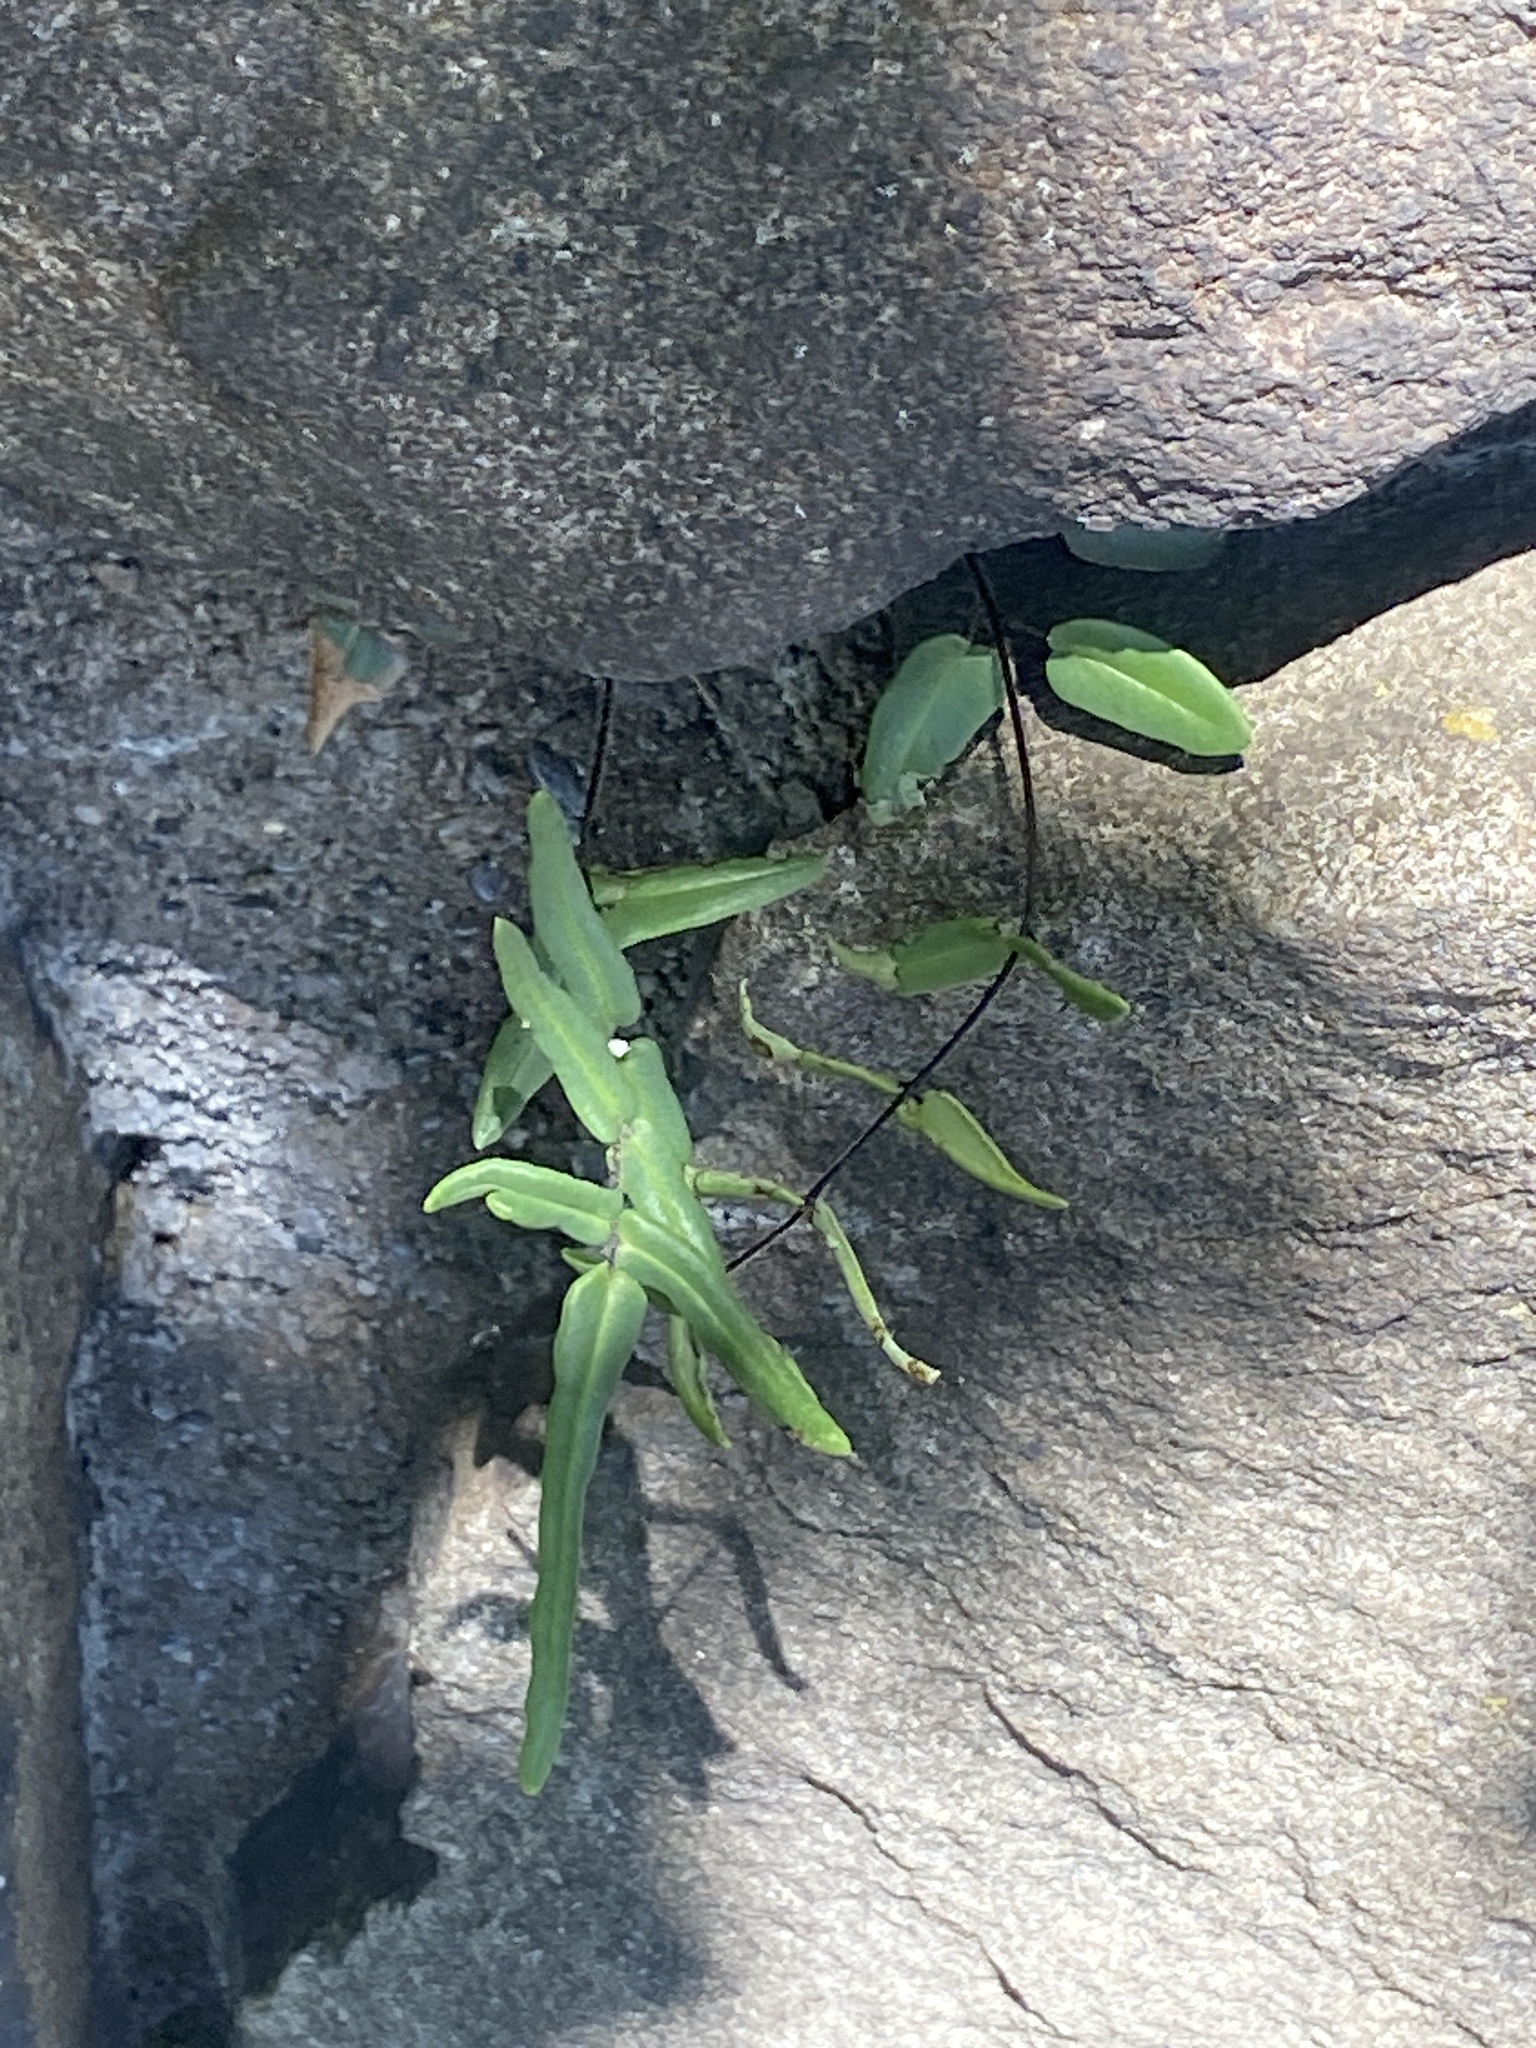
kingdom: Plantae
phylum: Tracheophyta
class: Polypodiopsida
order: Polypodiales
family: Pteridaceae
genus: Pellaea
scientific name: Pellaea atropurpurea
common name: Hairy cliffbrake
